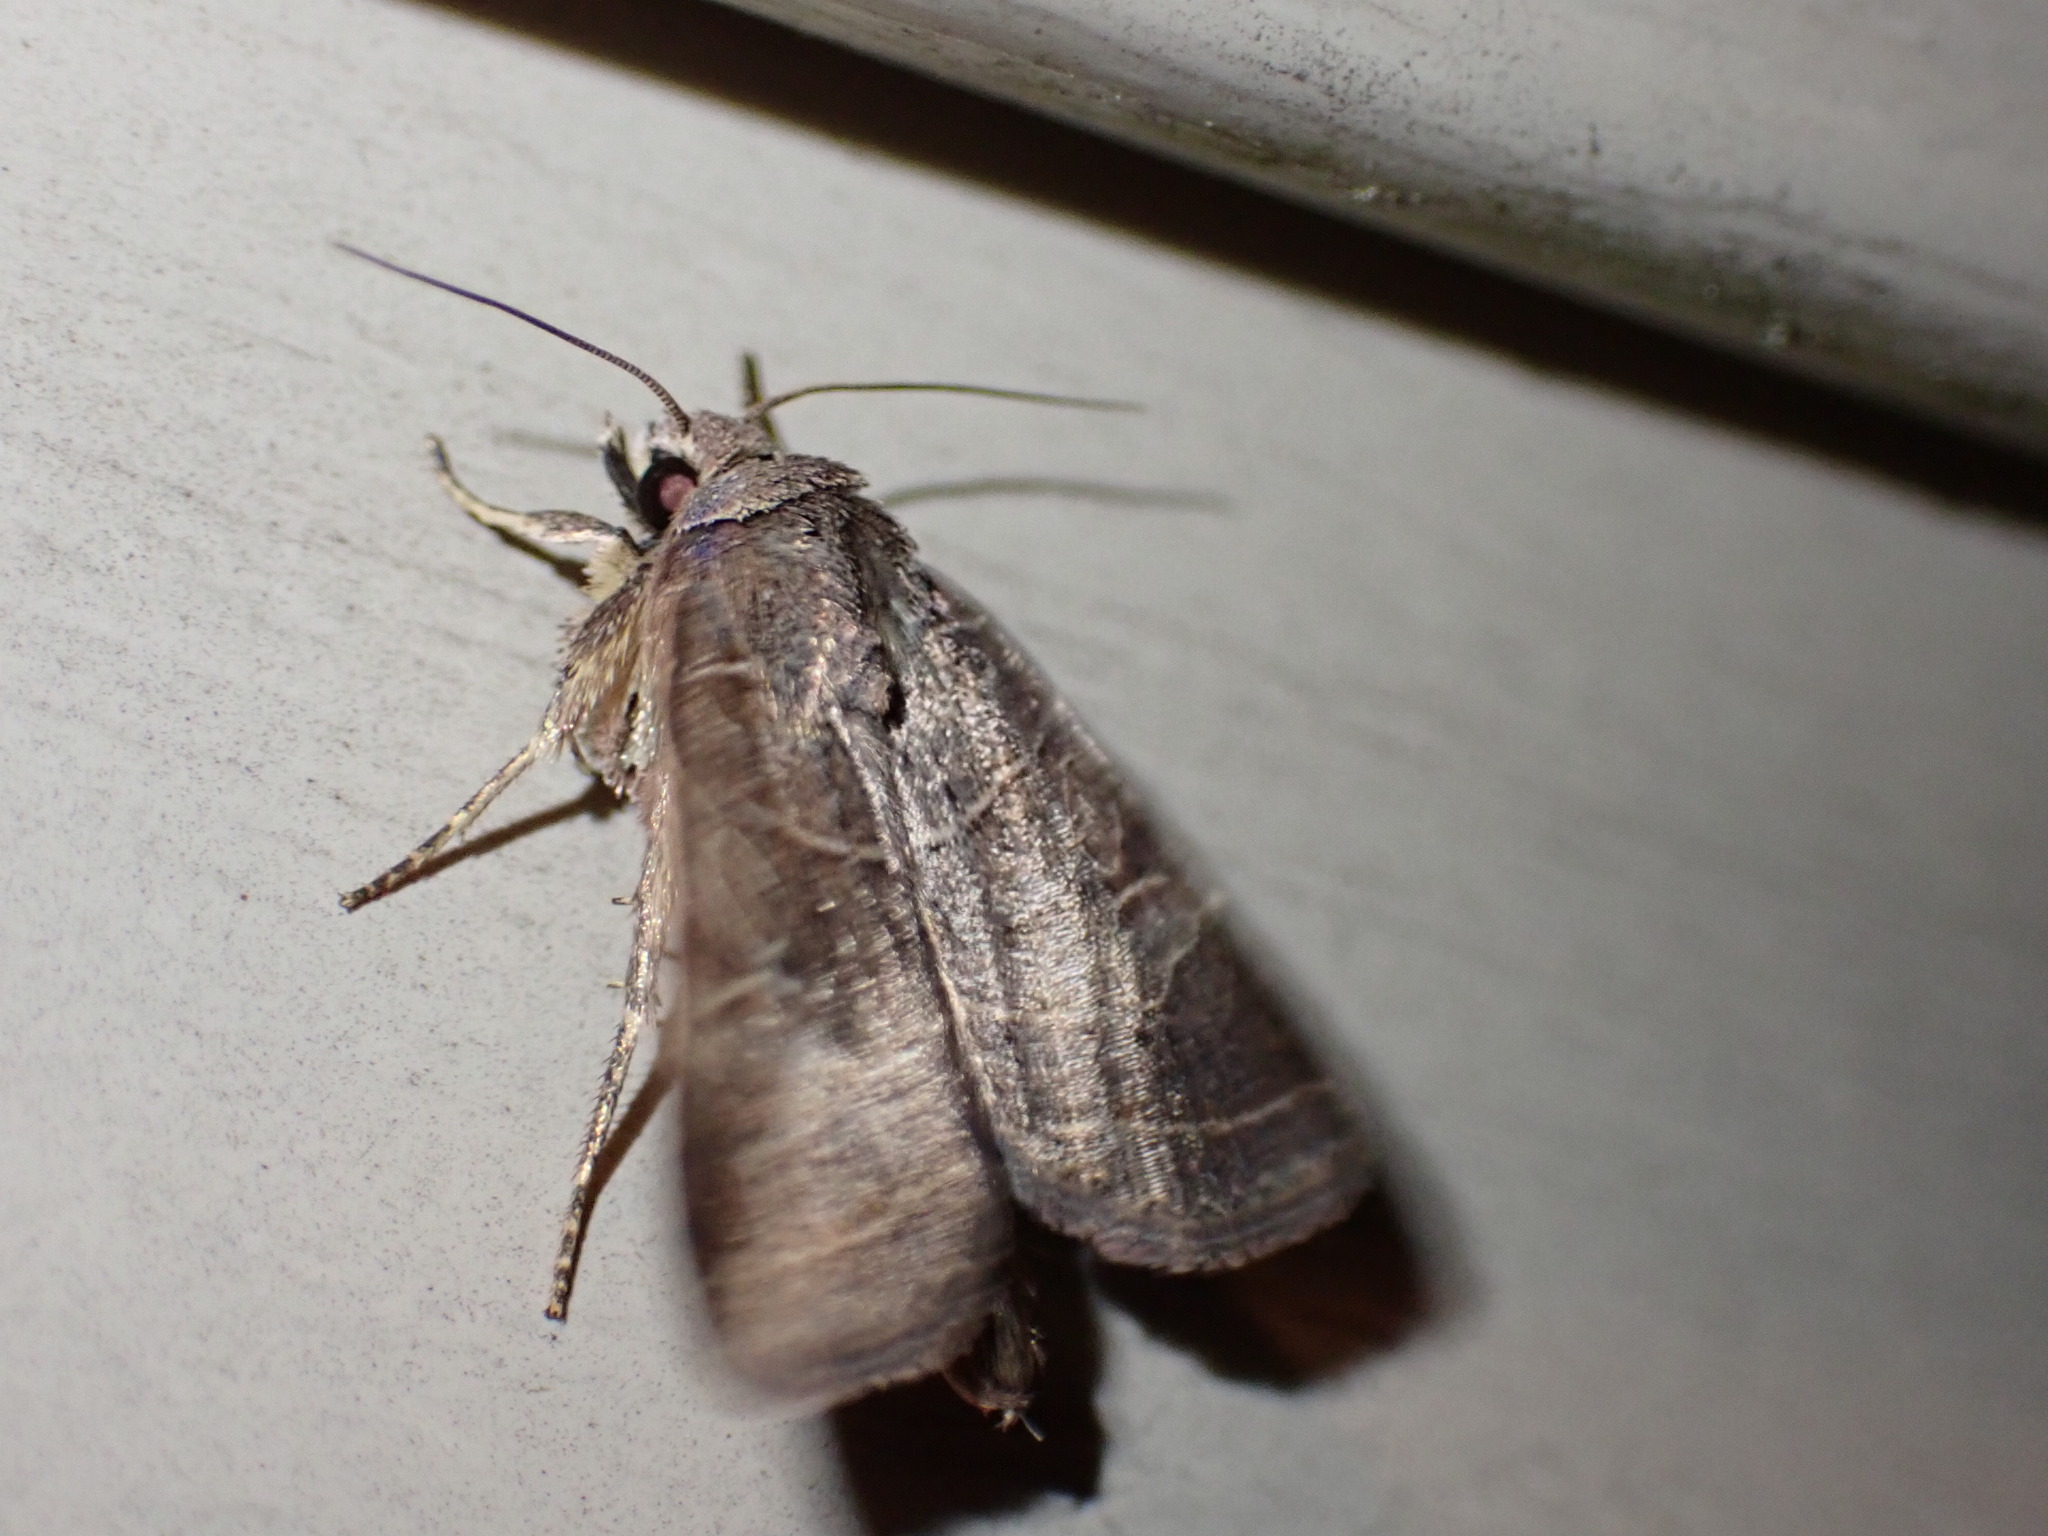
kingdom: Animalia
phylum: Arthropoda
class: Insecta
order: Lepidoptera
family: Noctuidae
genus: Orthodes
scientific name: Orthodes majuscula
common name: Rustic quaker
